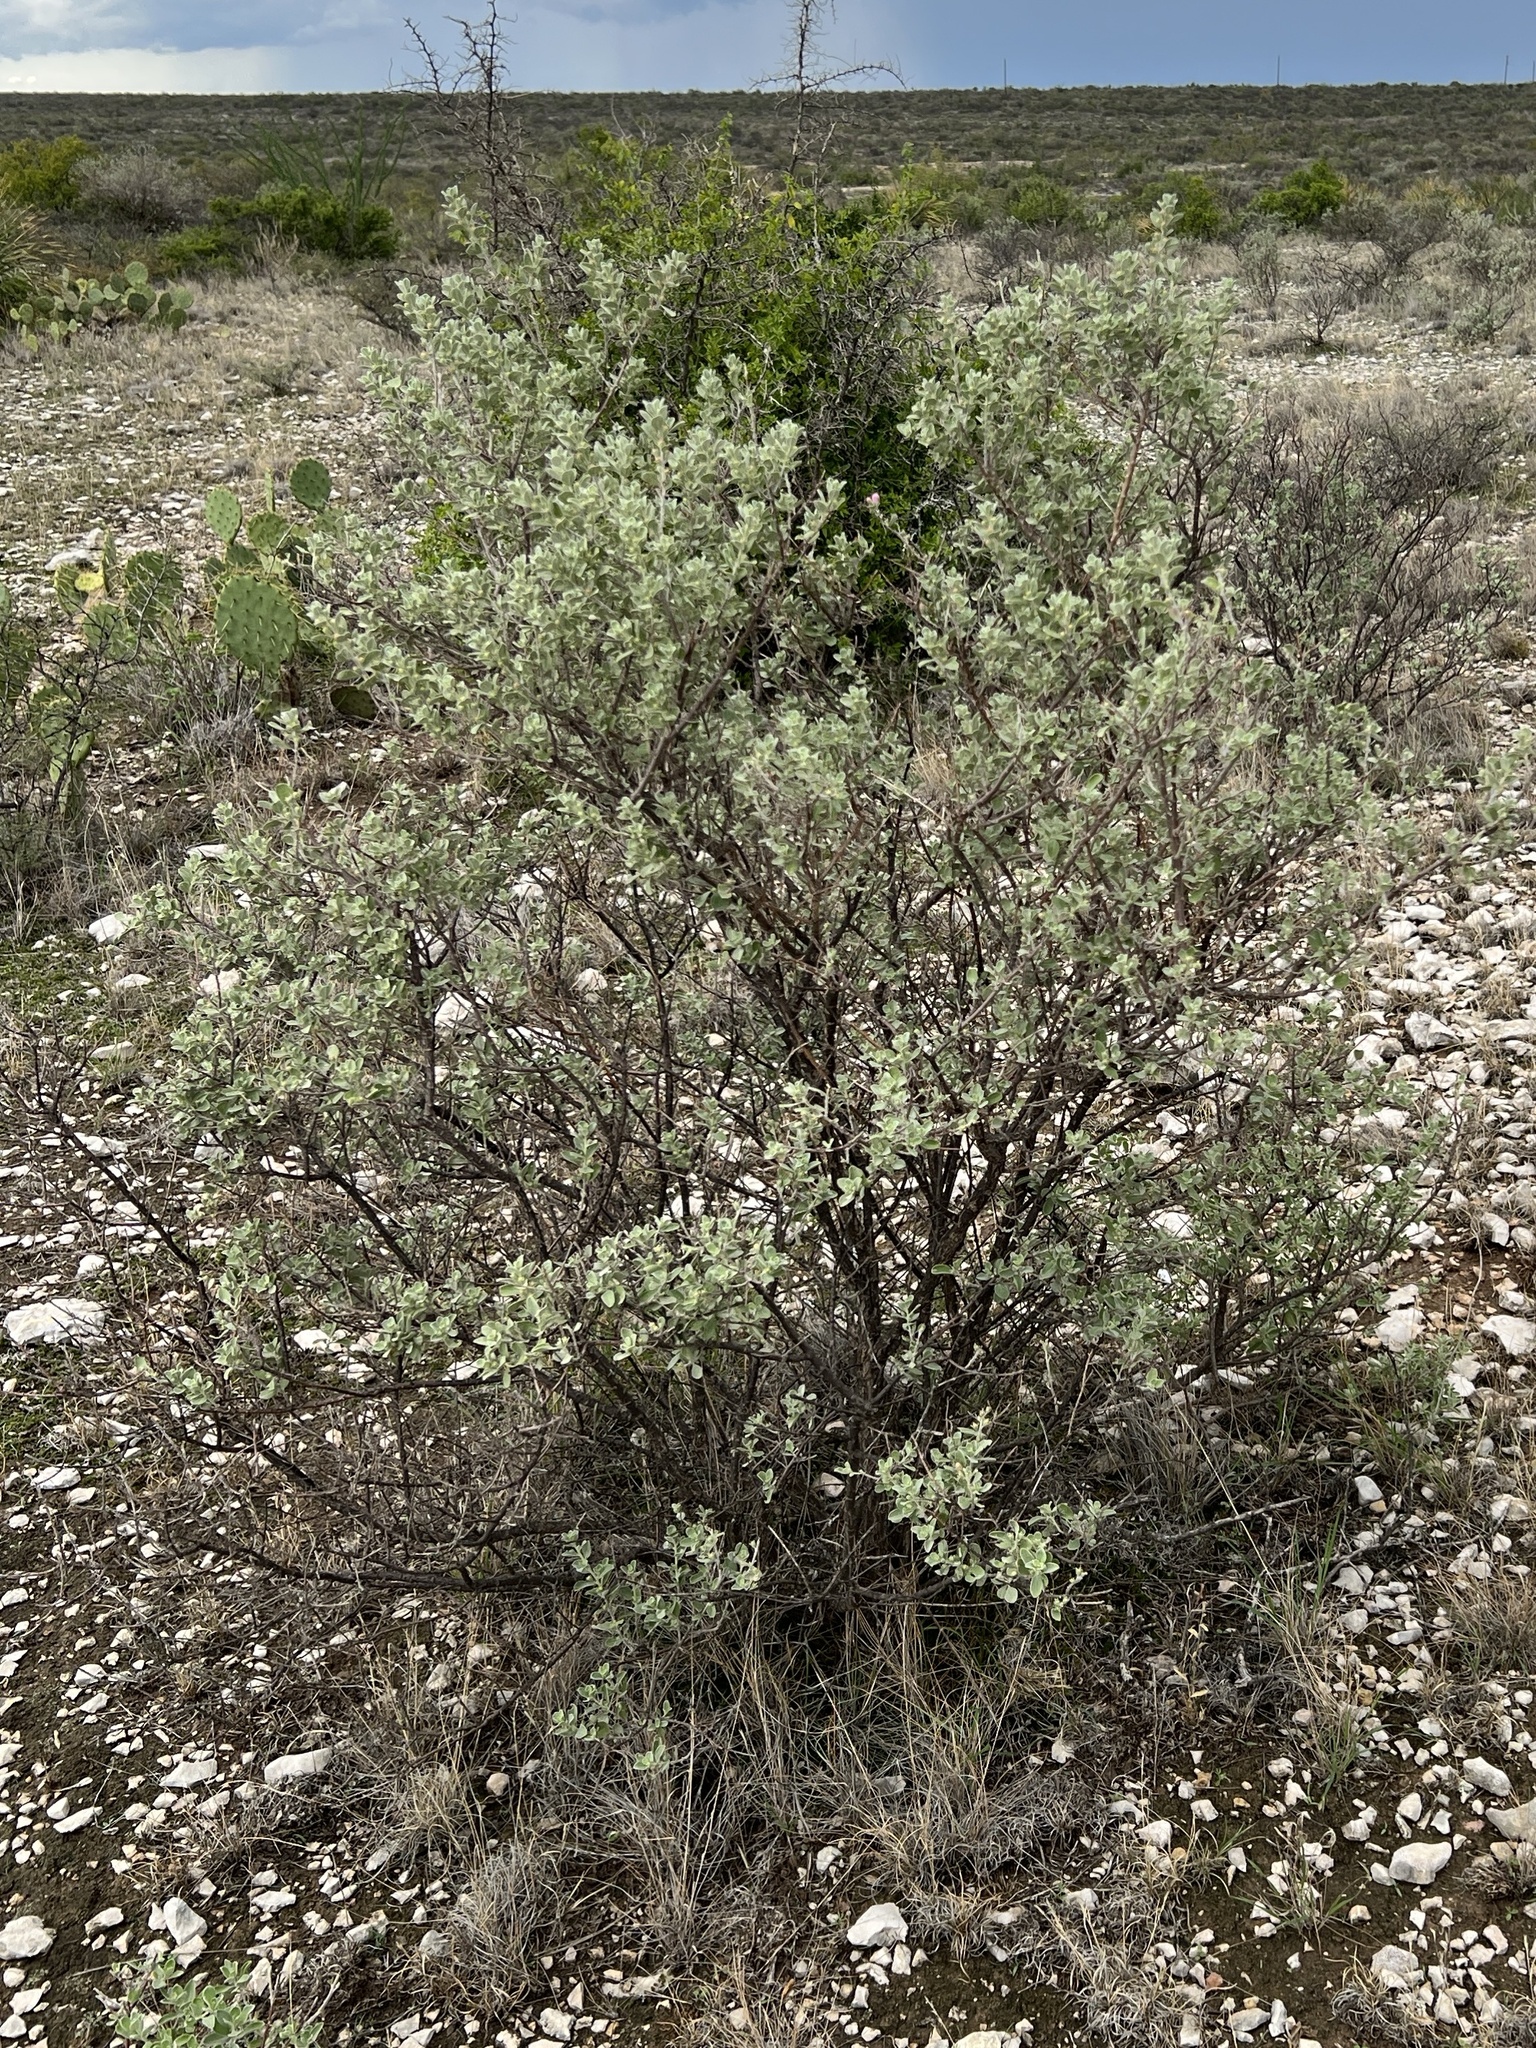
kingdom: Plantae
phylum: Tracheophyta
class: Magnoliopsida
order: Lamiales
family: Scrophulariaceae
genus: Leucophyllum
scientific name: Leucophyllum frutescens
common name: Texas silverleaf
